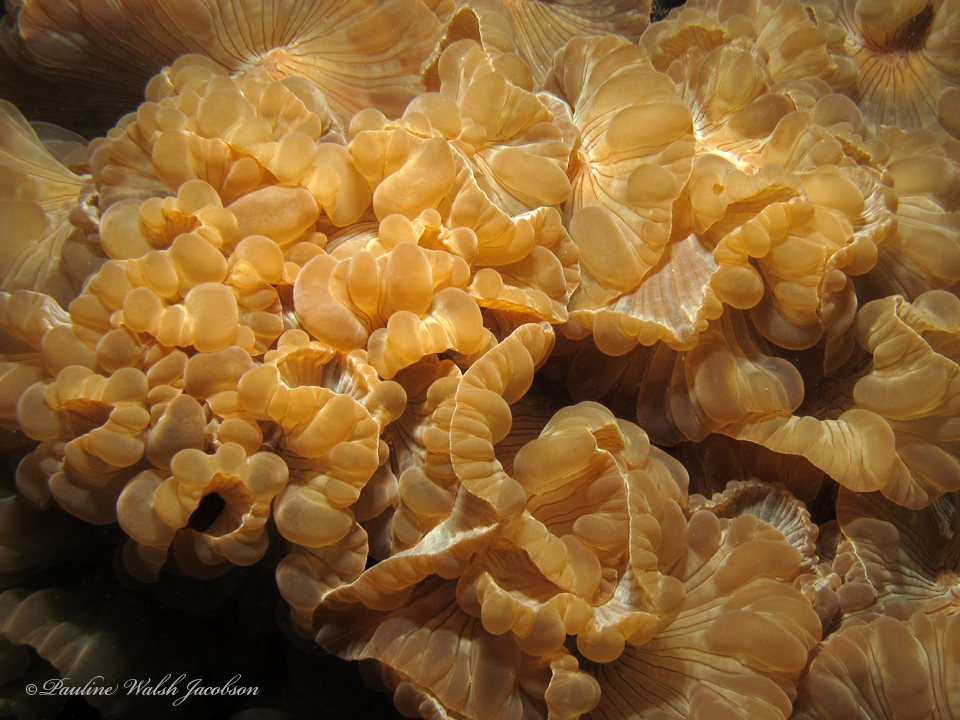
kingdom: Animalia
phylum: Cnidaria
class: Anthozoa
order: Scleractinia
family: Plerogyridae
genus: Nemenzophyllia
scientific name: Nemenzophyllia turbida
